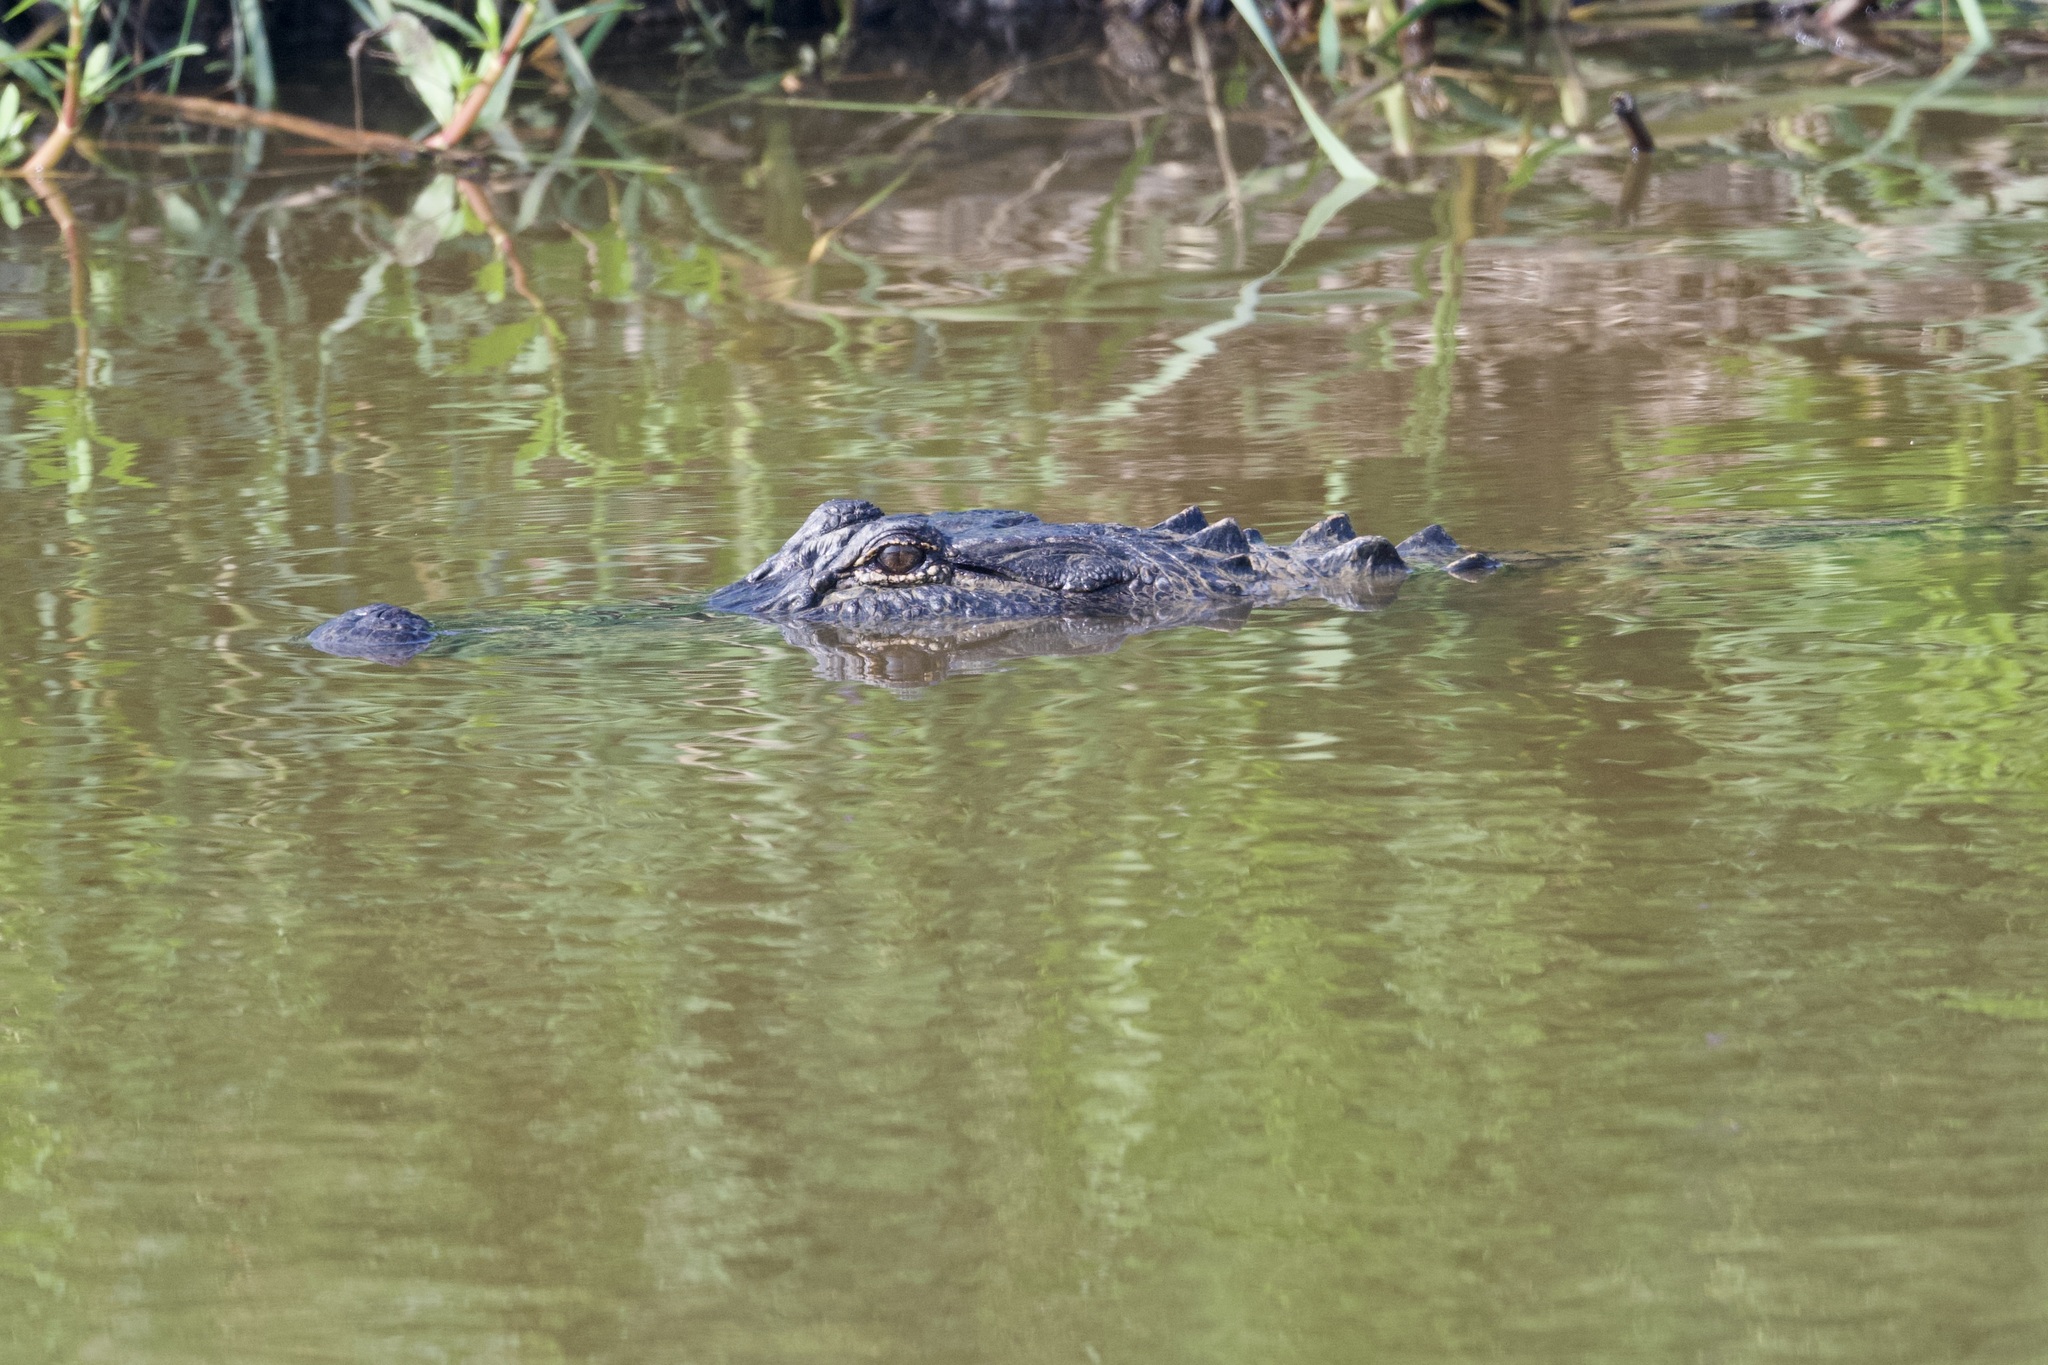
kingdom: Animalia
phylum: Chordata
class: Crocodylia
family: Alligatoridae
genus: Alligator
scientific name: Alligator mississippiensis
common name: American alligator
